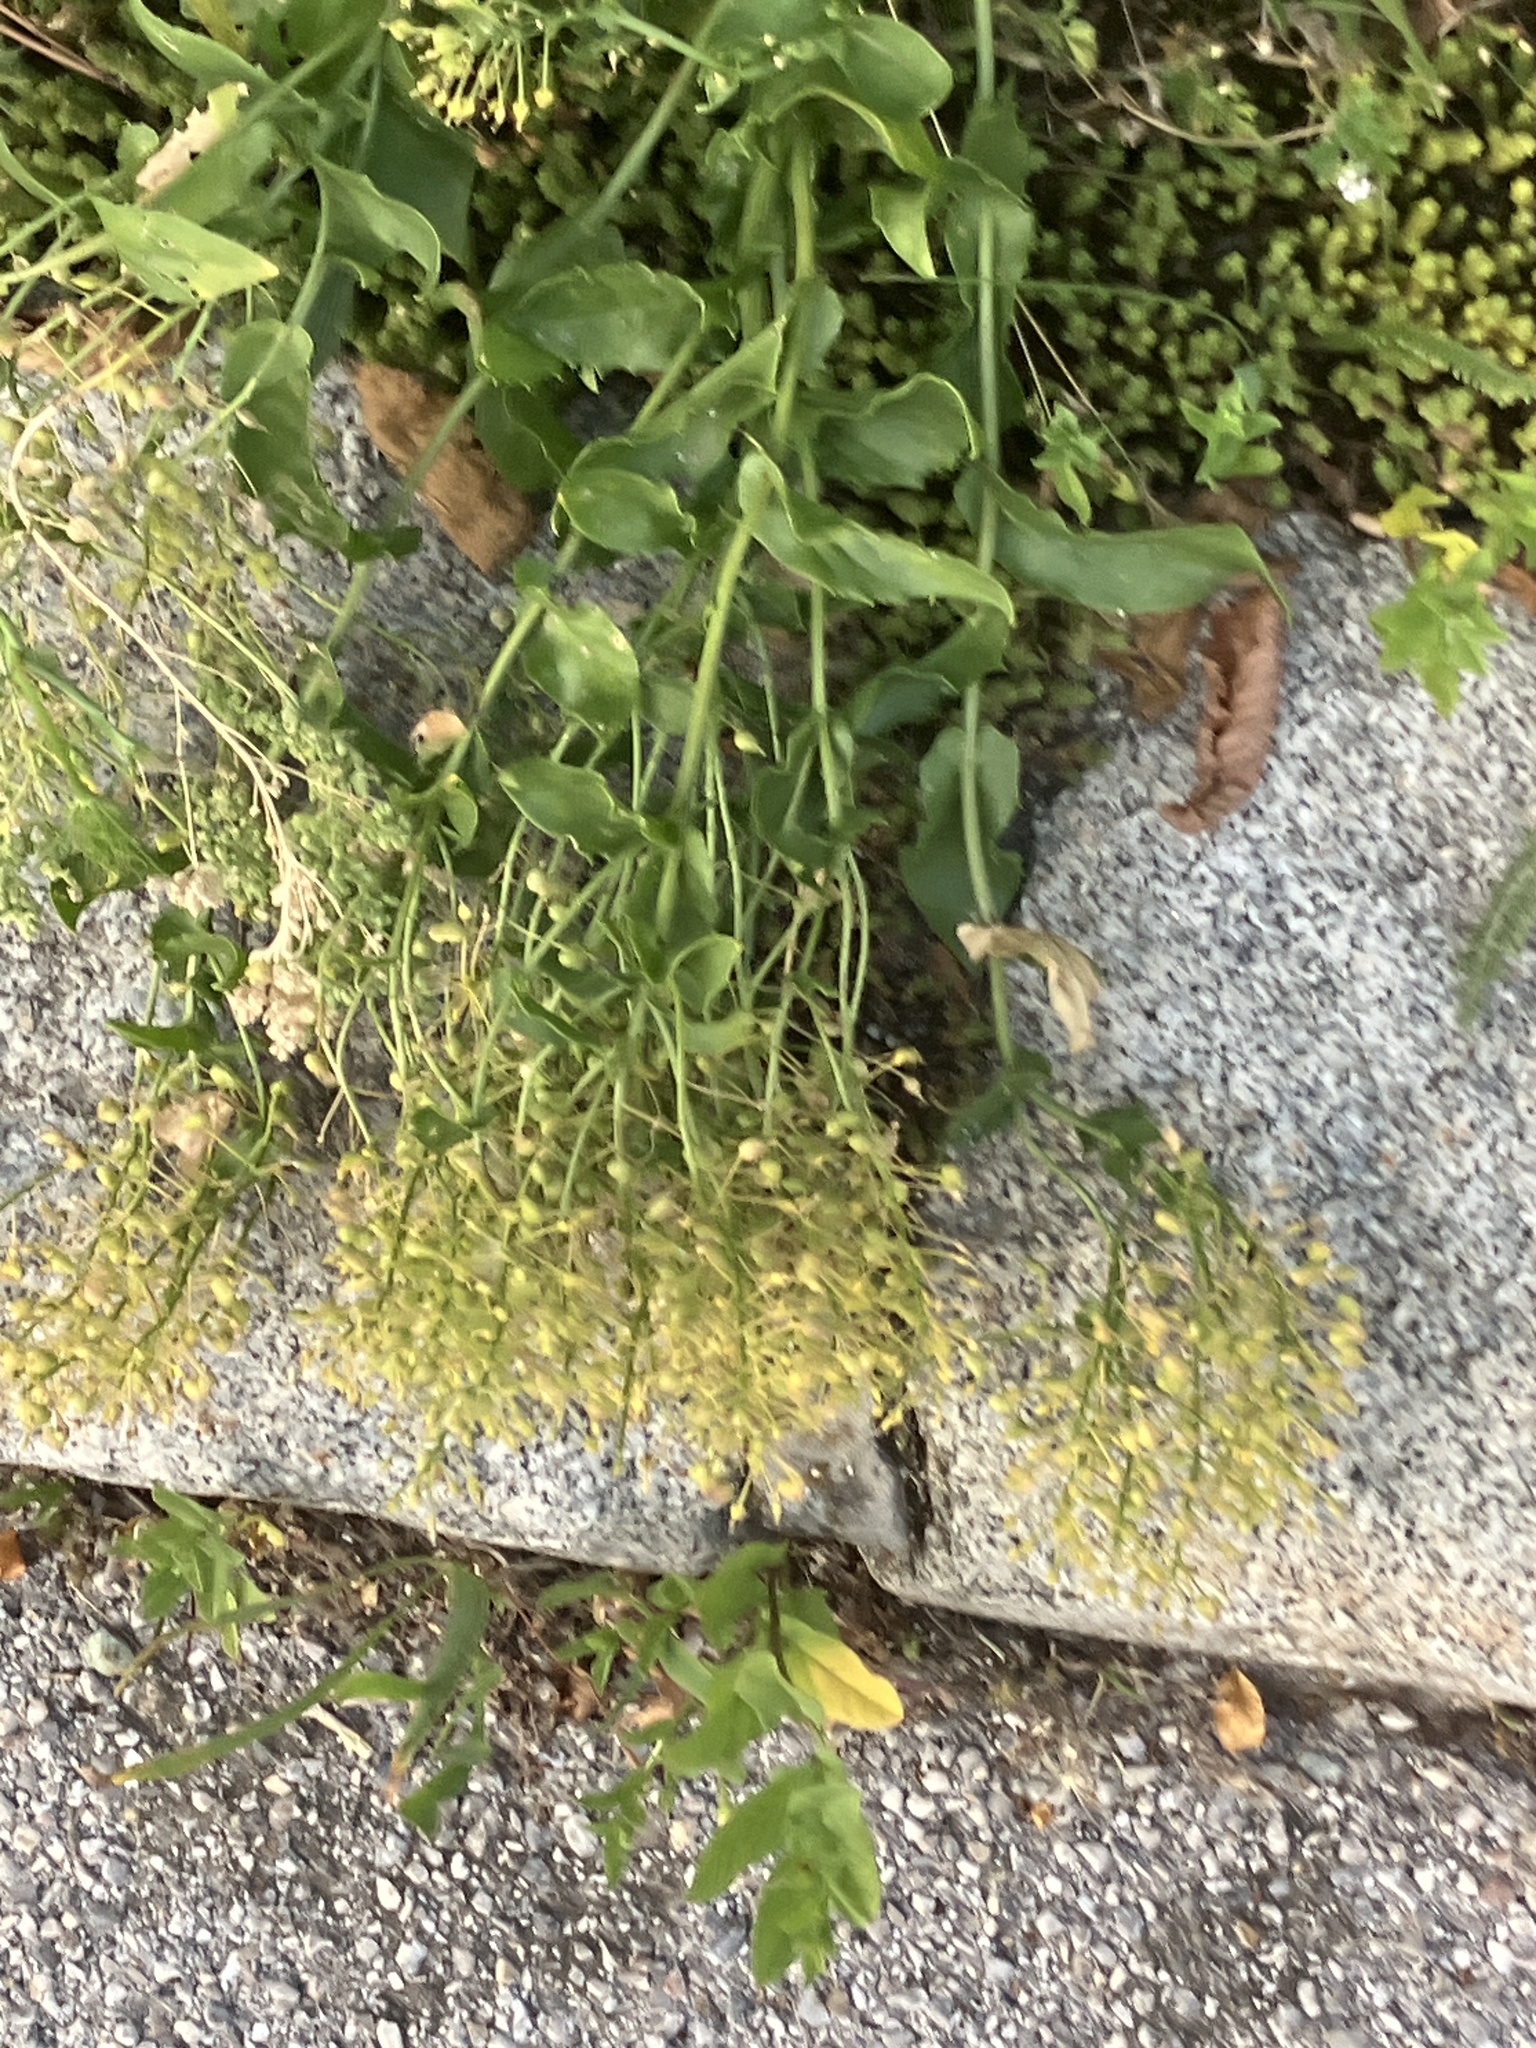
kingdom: Plantae
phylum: Tracheophyta
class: Magnoliopsida
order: Brassicales
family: Brassicaceae
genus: Lepidium
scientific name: Lepidium draba
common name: Hoary cress
